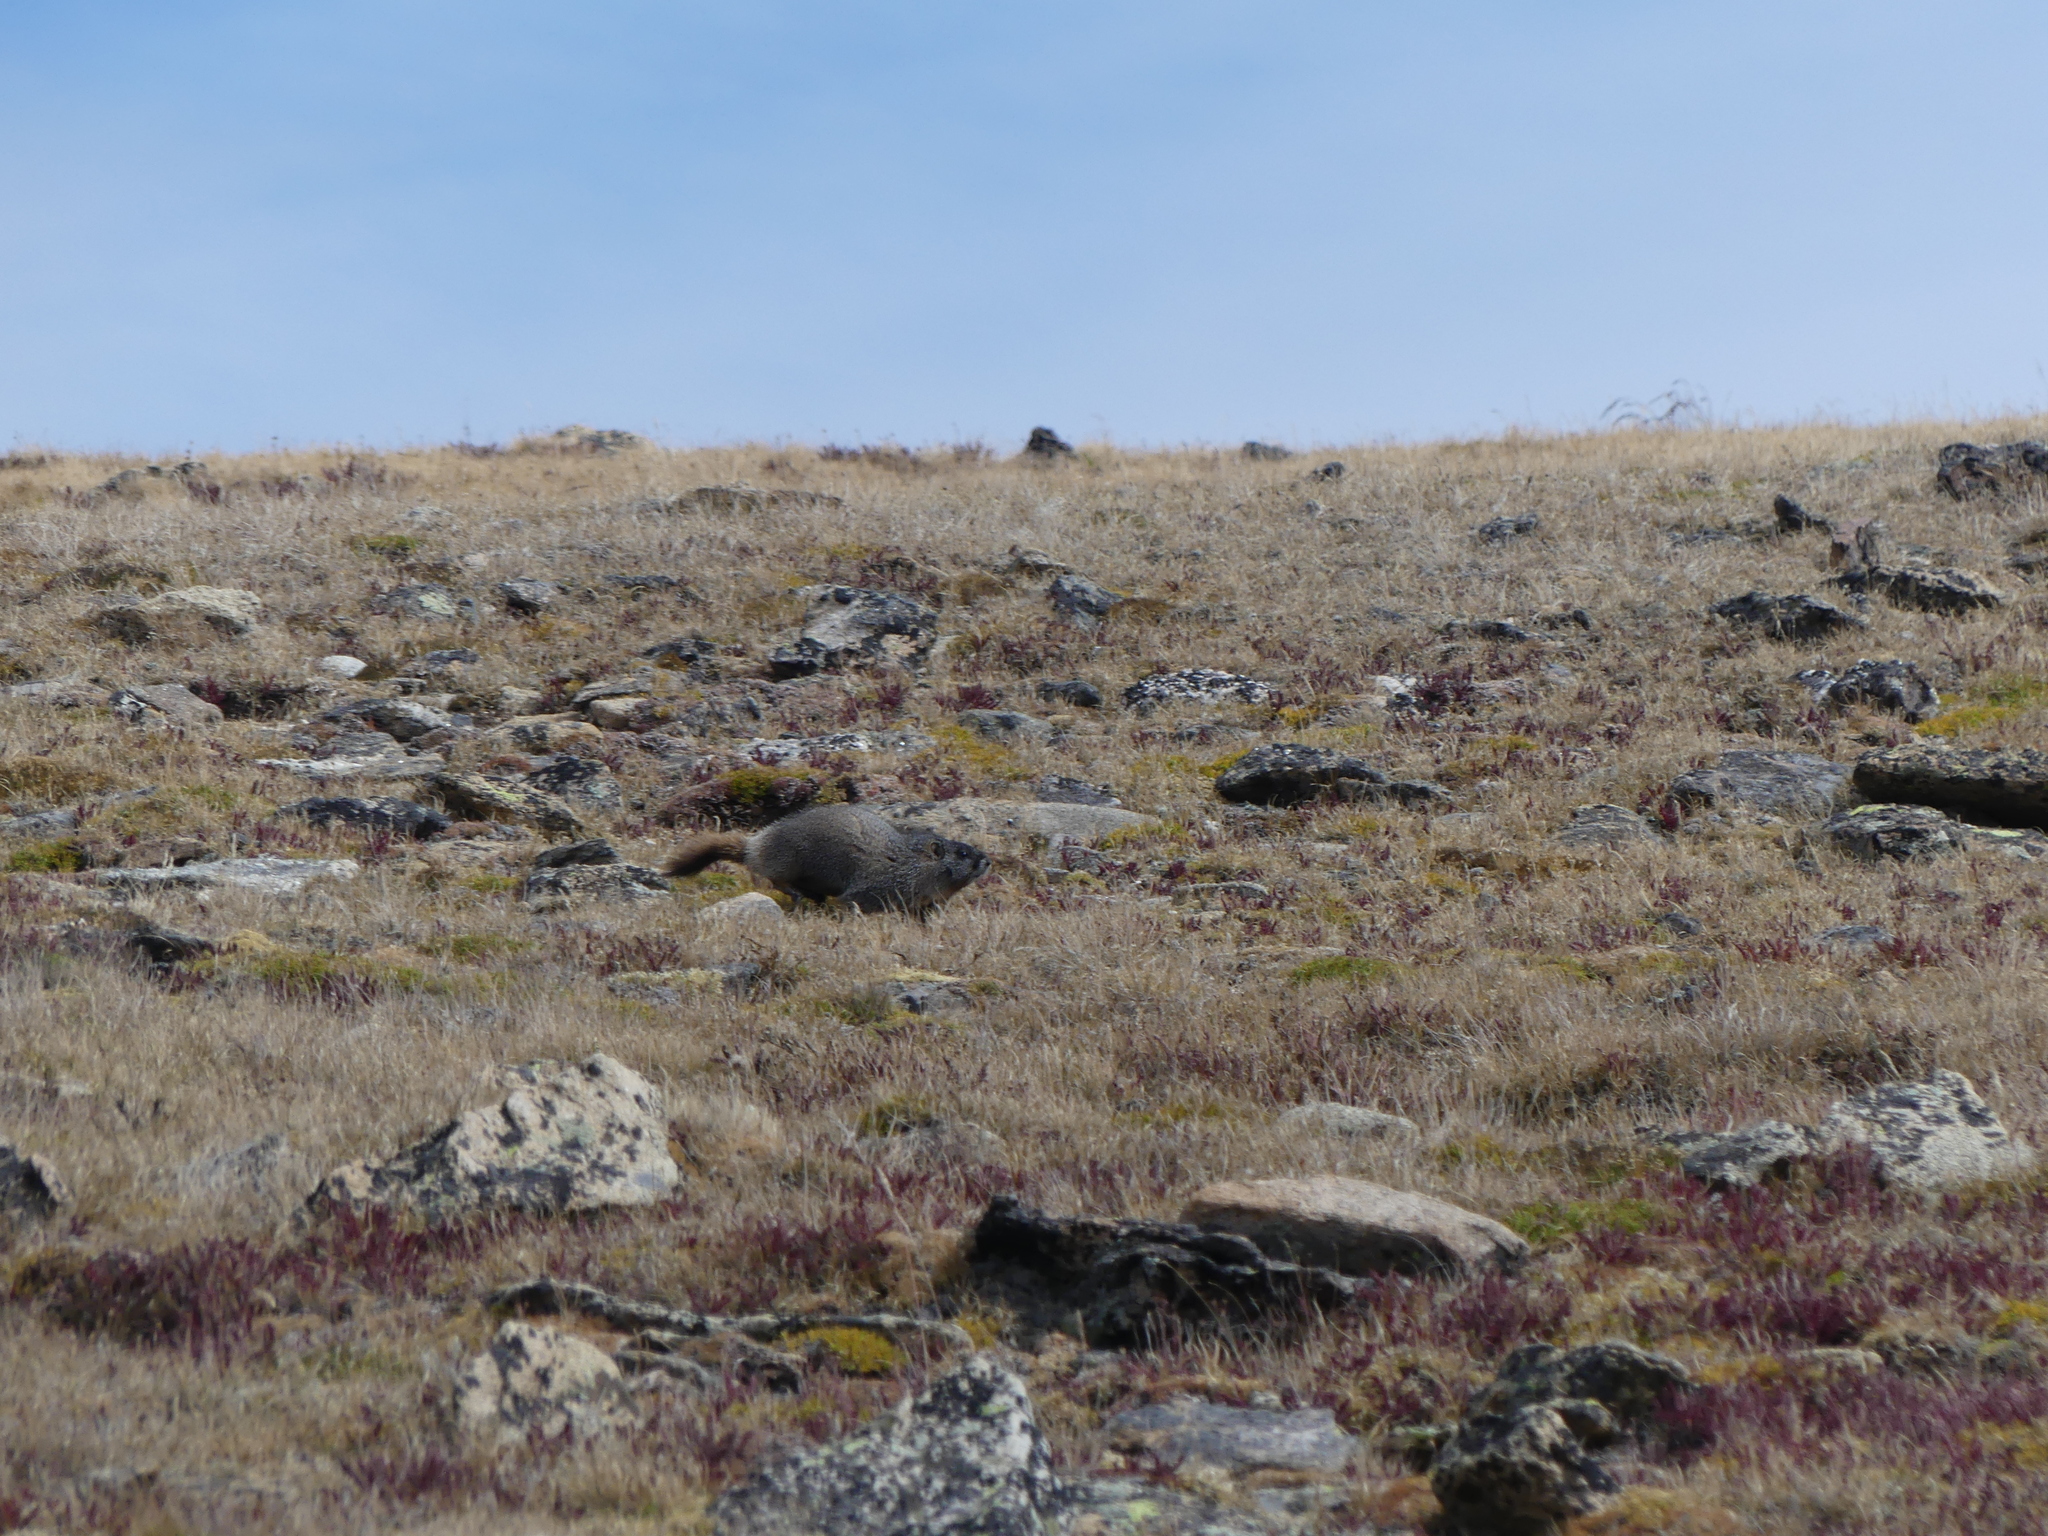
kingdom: Animalia
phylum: Chordata
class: Mammalia
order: Rodentia
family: Sciuridae
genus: Marmota
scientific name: Marmota flaviventris
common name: Yellow-bellied marmot
